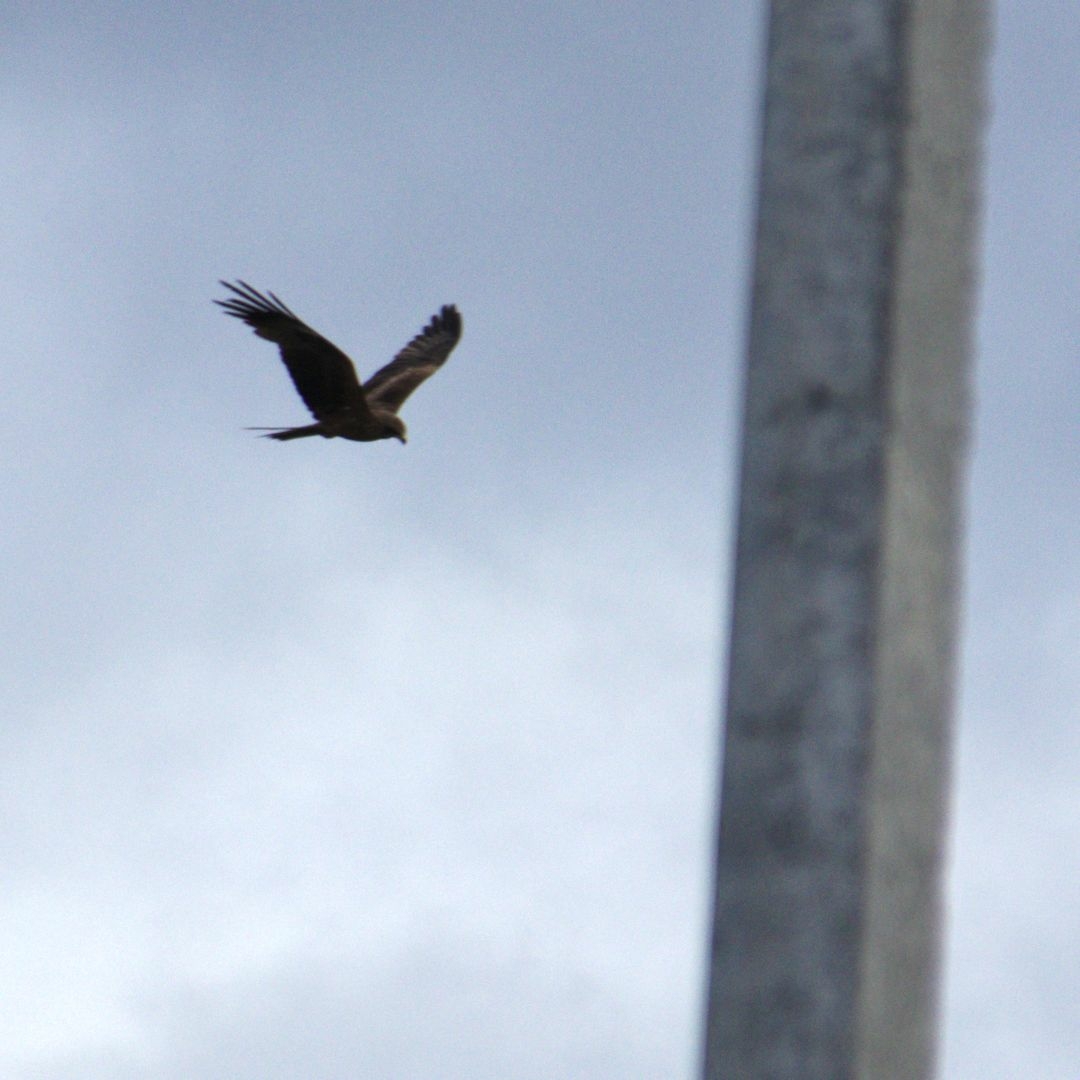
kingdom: Animalia
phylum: Chordata
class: Aves
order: Accipitriformes
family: Accipitridae
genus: Milvus
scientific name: Milvus migrans
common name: Black kite
